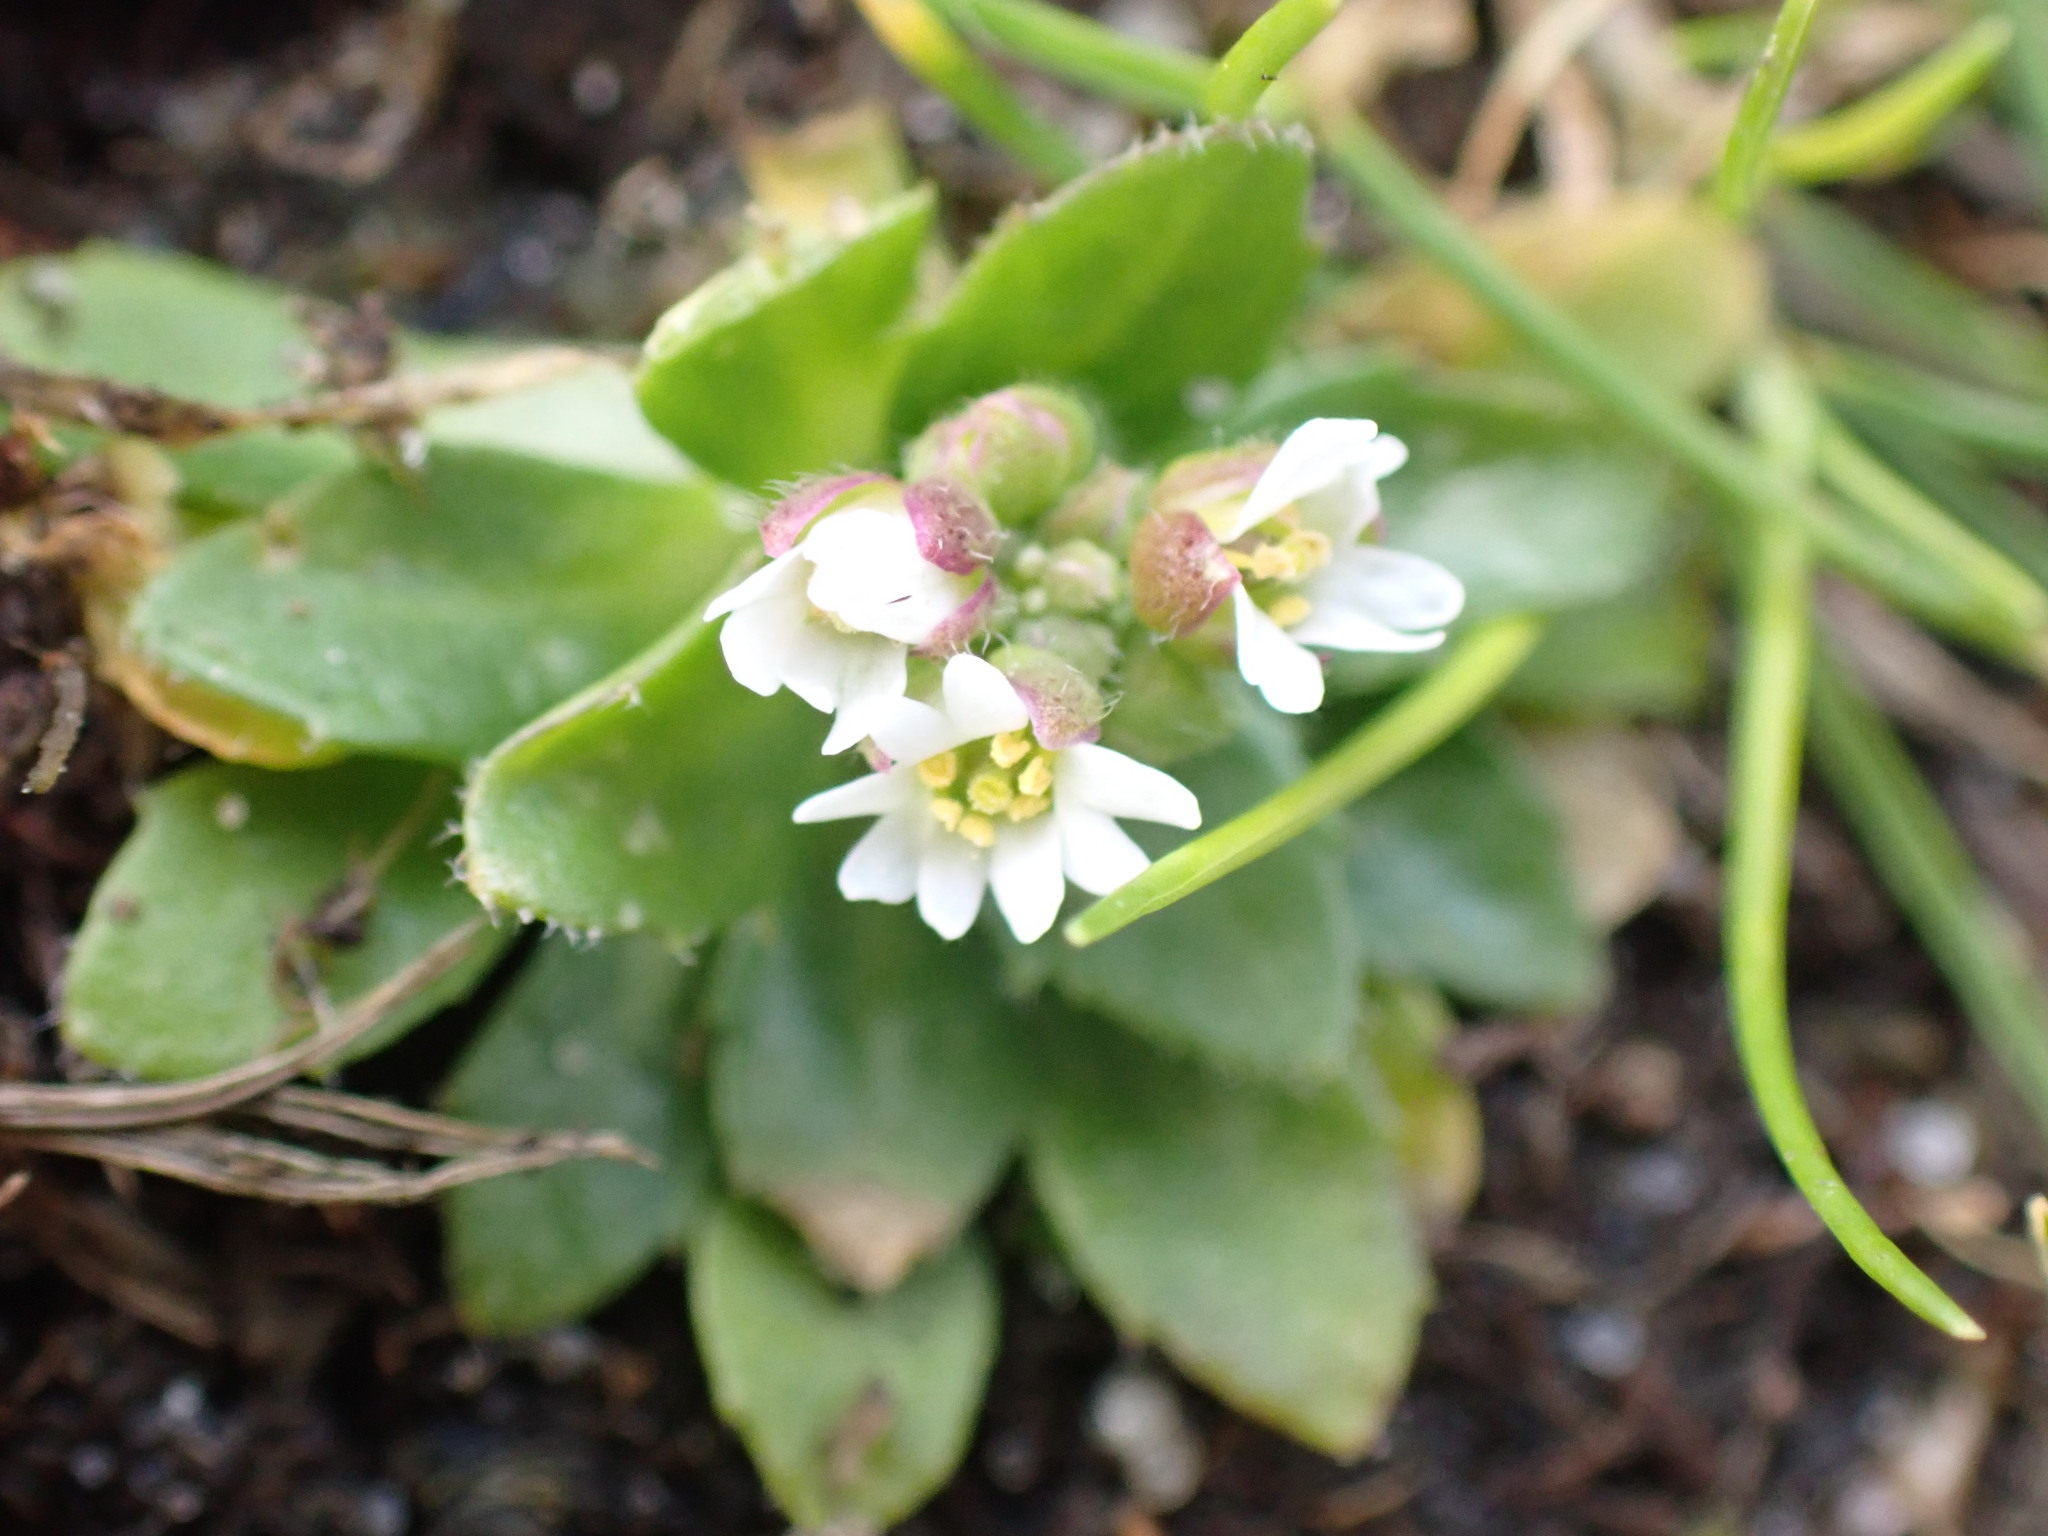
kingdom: Plantae
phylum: Tracheophyta
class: Magnoliopsida
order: Brassicales
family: Brassicaceae
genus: Draba
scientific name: Draba verna
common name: Spring draba
